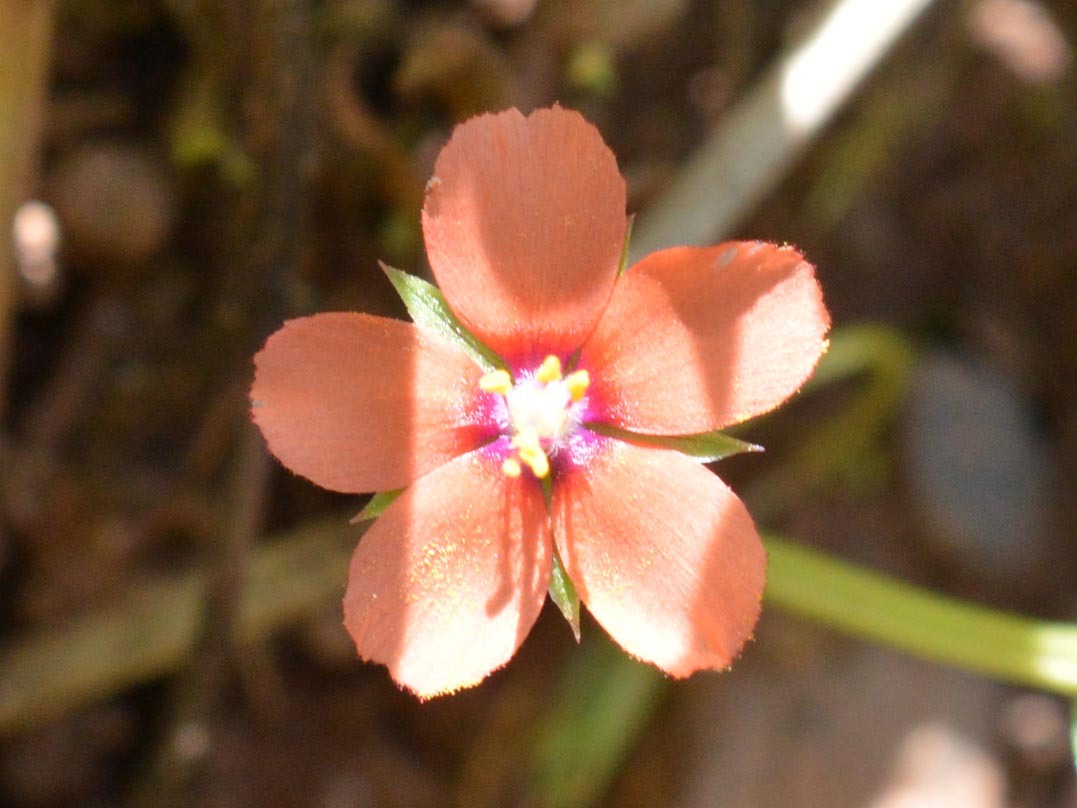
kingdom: Plantae
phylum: Tracheophyta
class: Magnoliopsida
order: Ericales
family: Primulaceae
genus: Lysimachia
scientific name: Lysimachia arvensis
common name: Scarlet pimpernel
